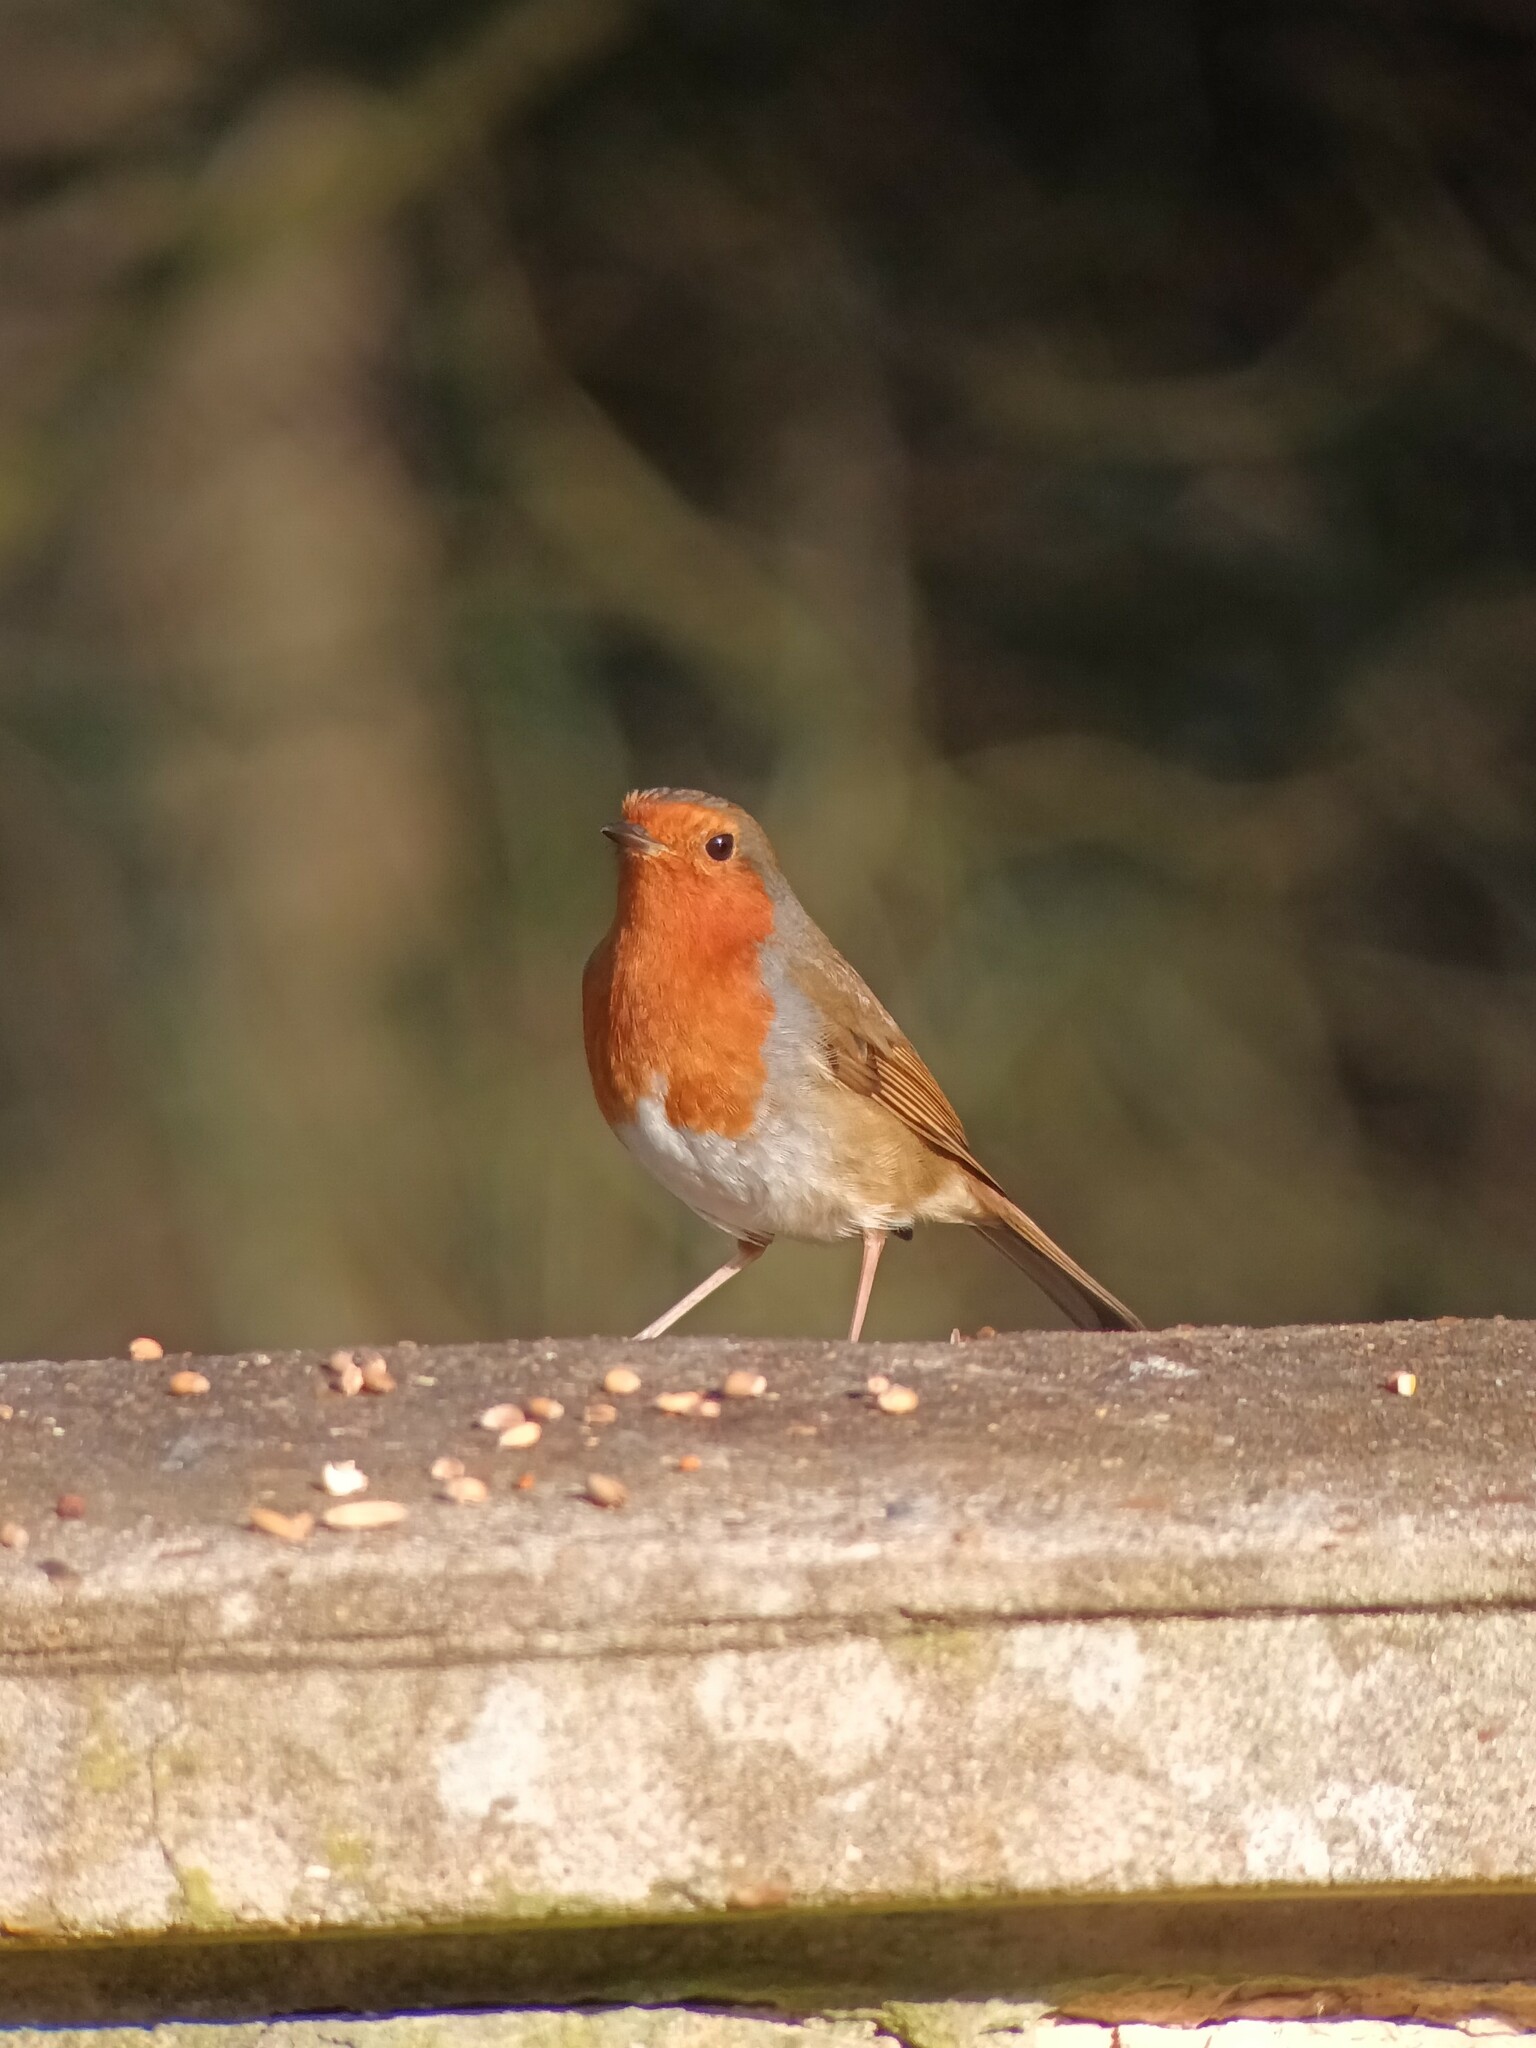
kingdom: Animalia
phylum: Chordata
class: Aves
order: Passeriformes
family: Muscicapidae
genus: Erithacus
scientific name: Erithacus rubecula
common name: European robin
